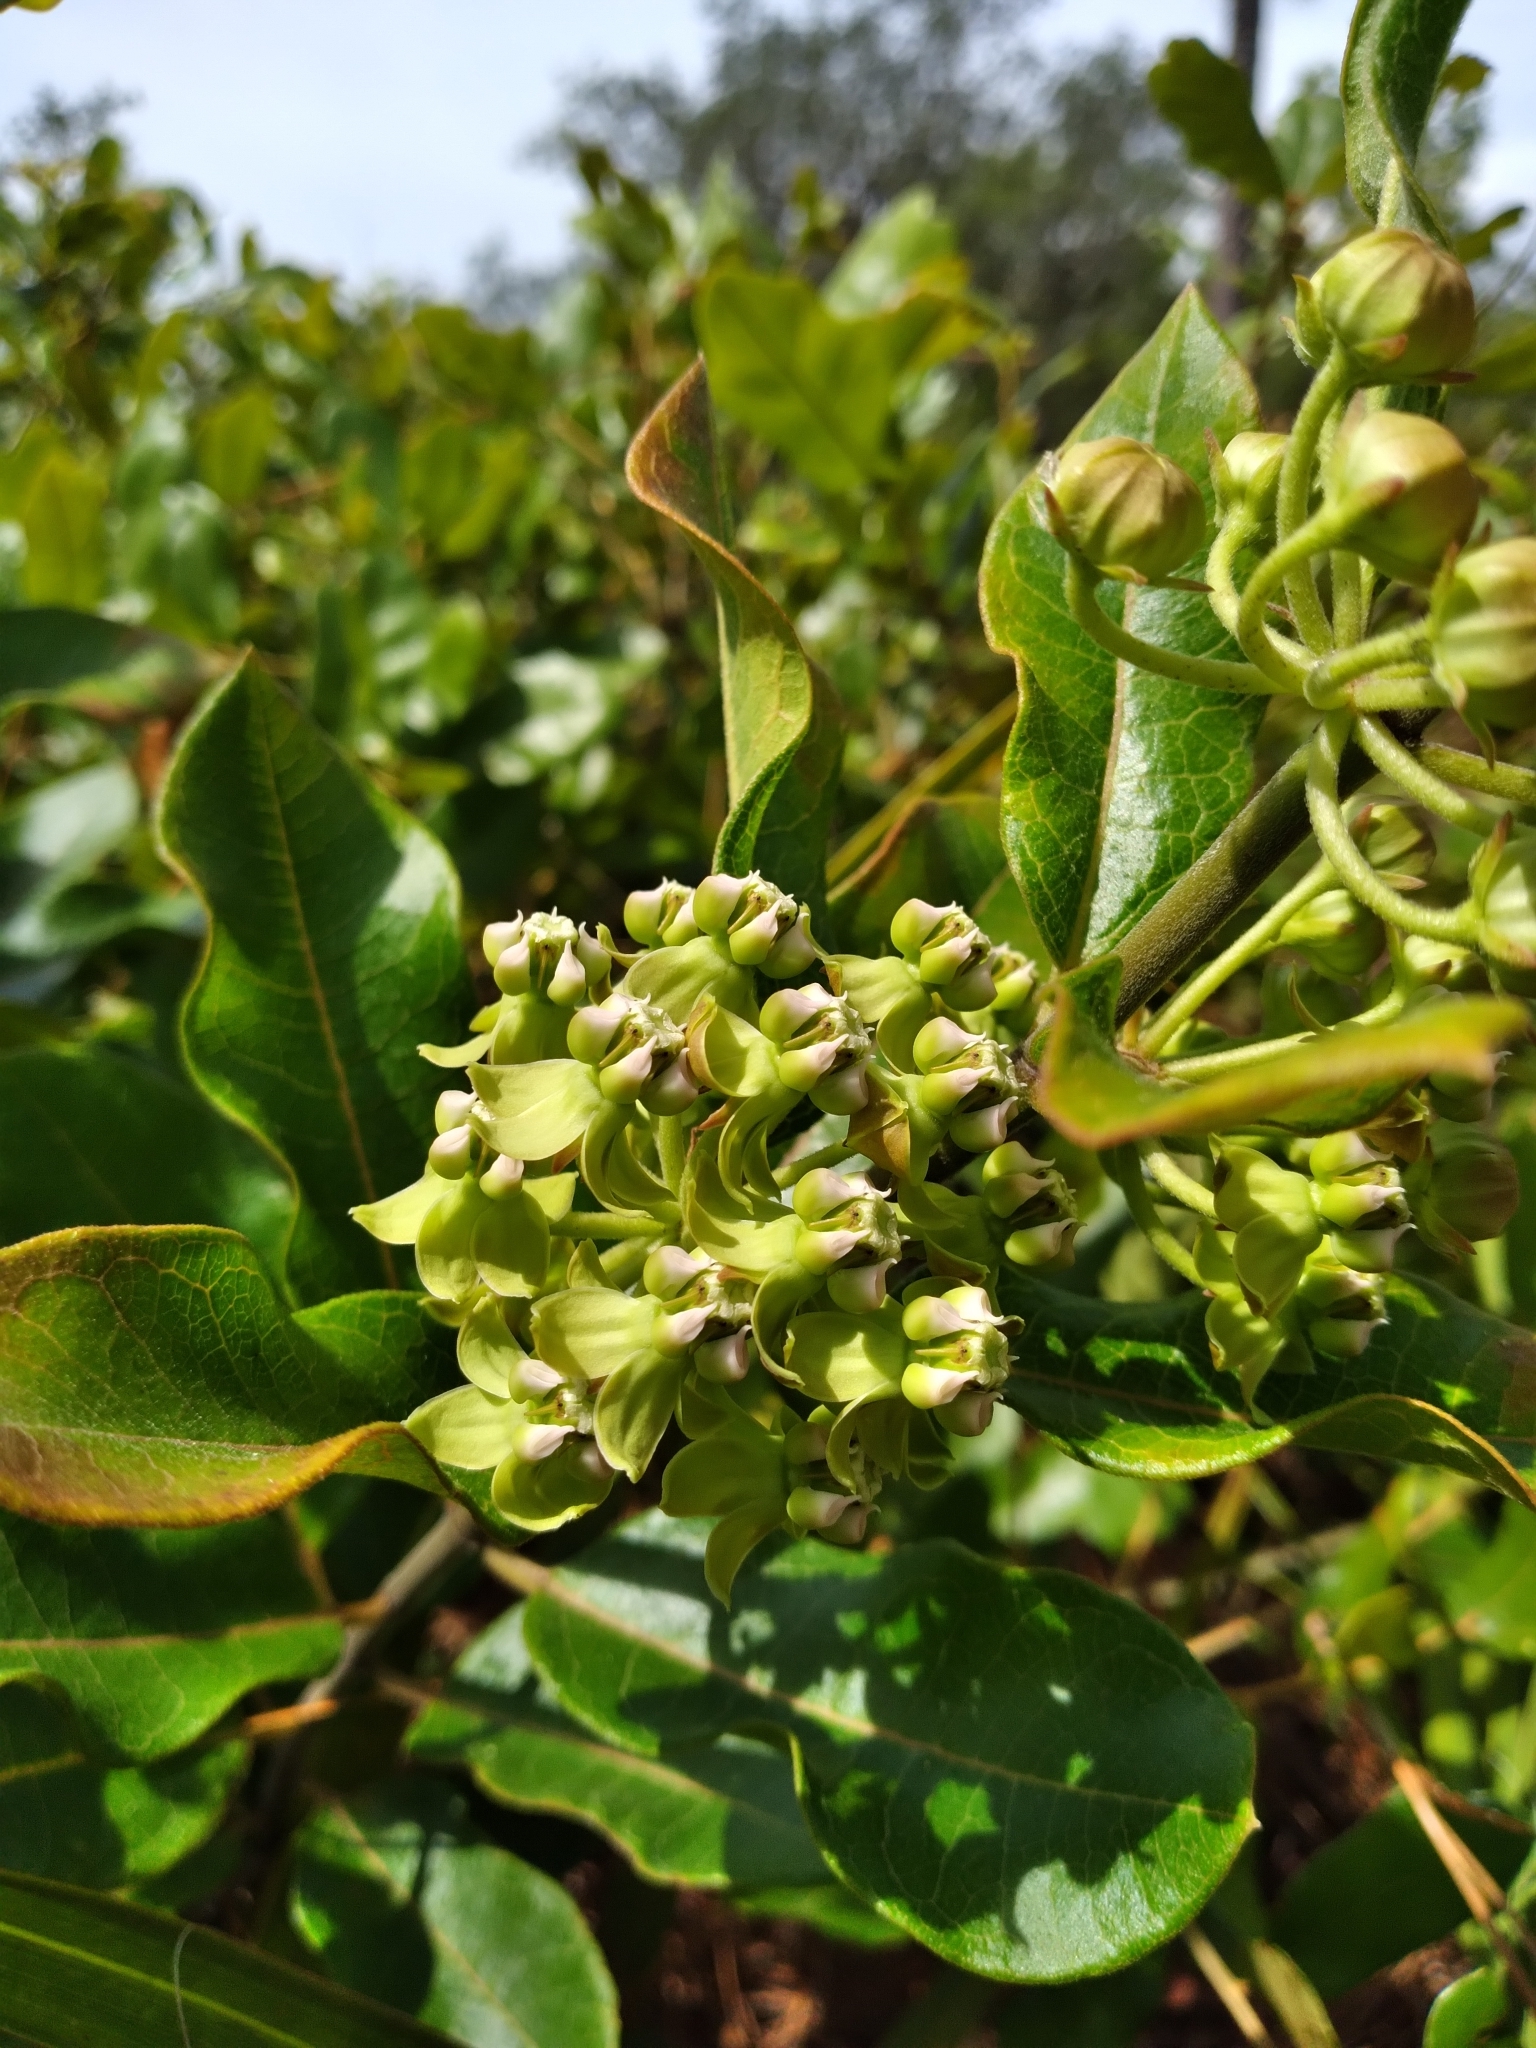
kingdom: Plantae
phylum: Tracheophyta
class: Magnoliopsida
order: Gentianales
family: Apocynaceae
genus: Asclepias
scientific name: Asclepias tomentosa
